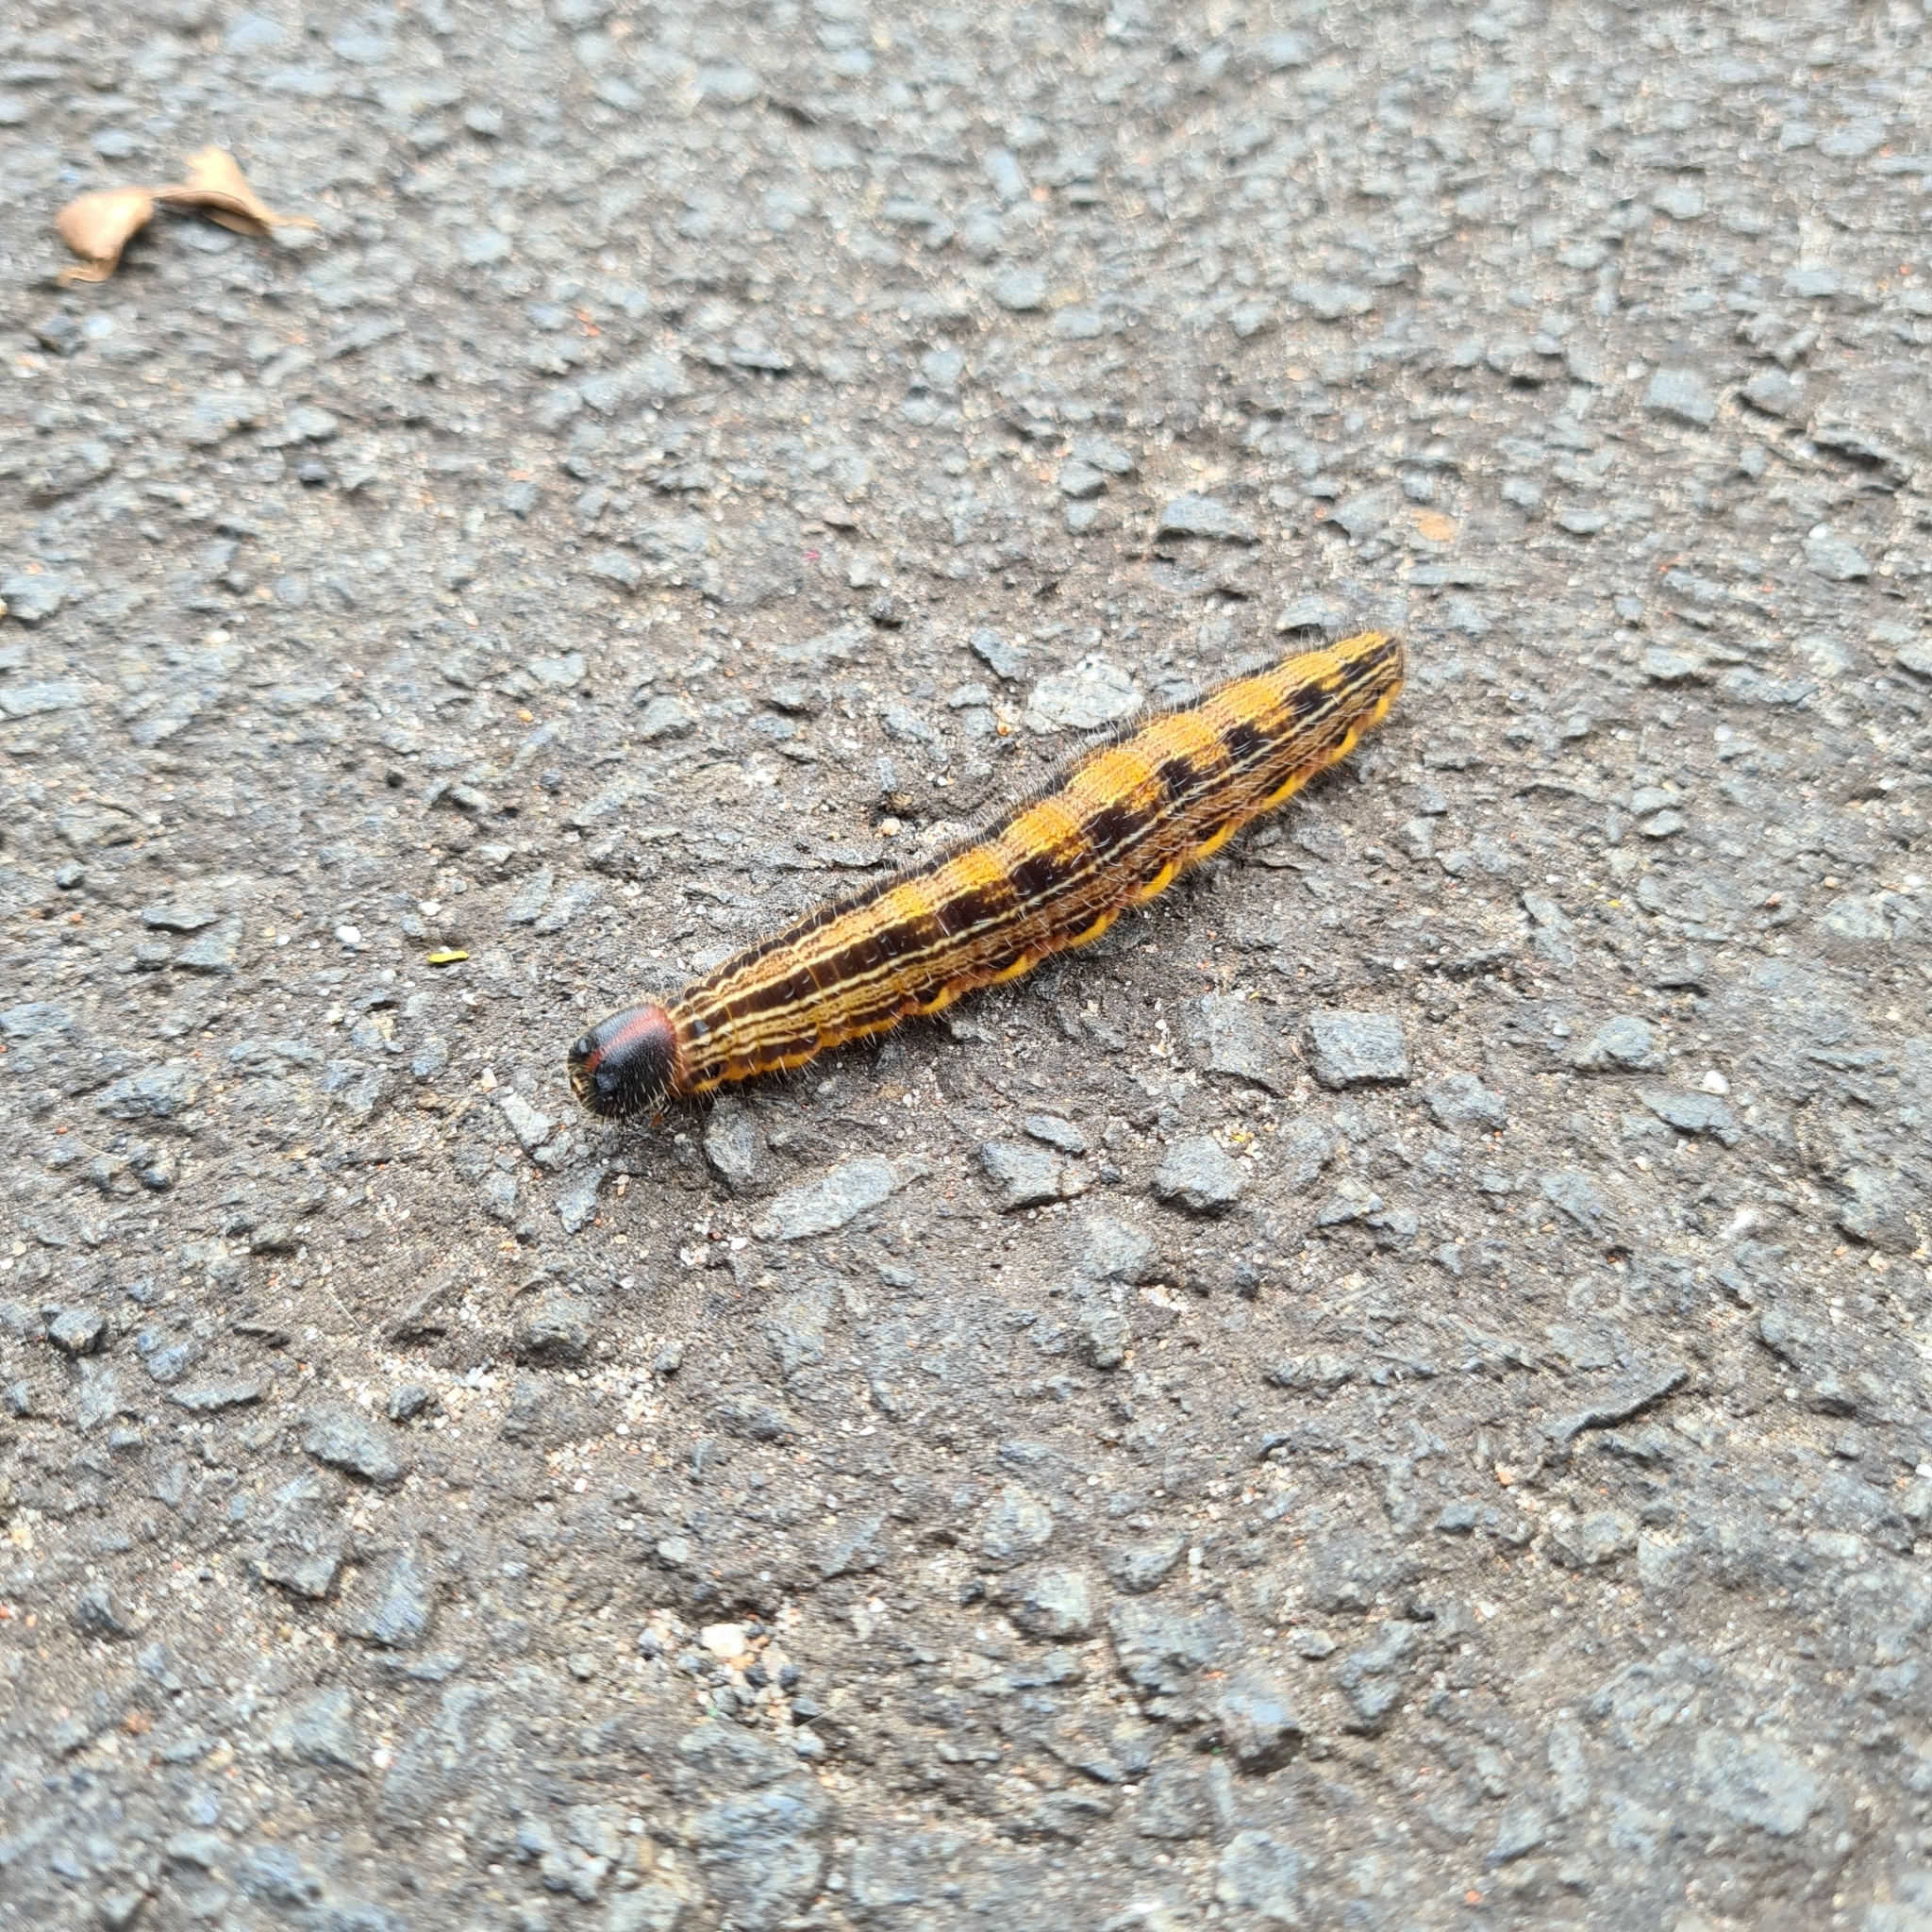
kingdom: Animalia
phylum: Arthropoda
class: Insecta
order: Lepidoptera
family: Nymphalidae
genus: Brassolis
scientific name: Brassolis sophorae
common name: Coconut caterpillar
